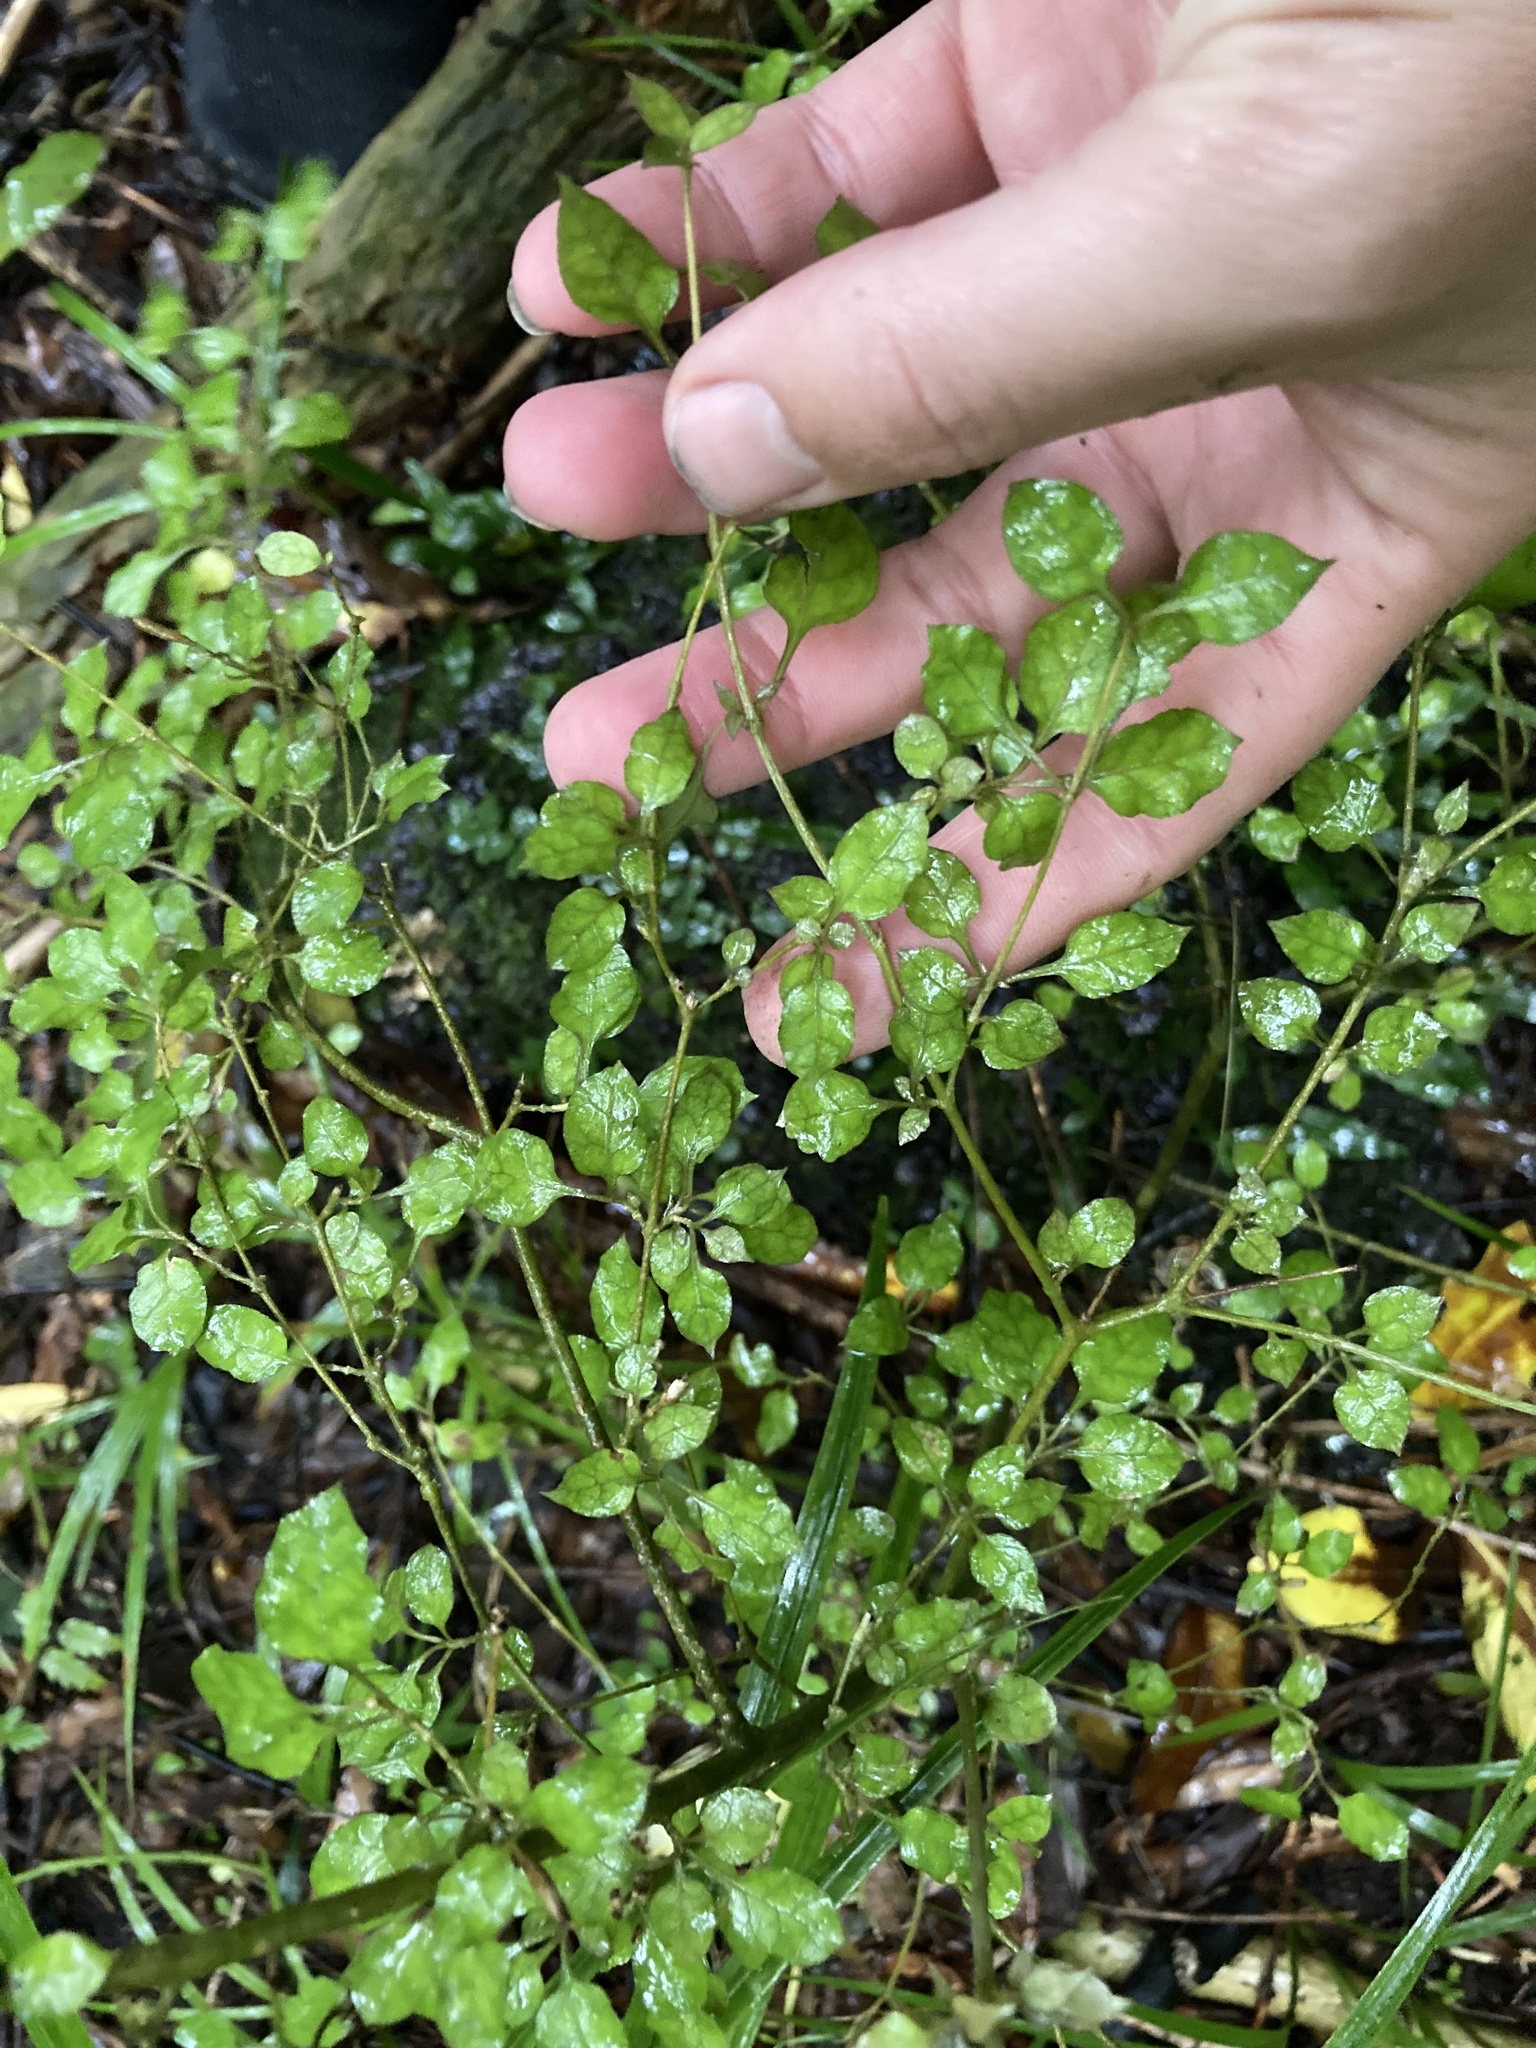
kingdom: Plantae
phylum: Tracheophyta
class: Magnoliopsida
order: Gentianales
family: Rubiaceae
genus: Coprosma
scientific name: Coprosma areolata
